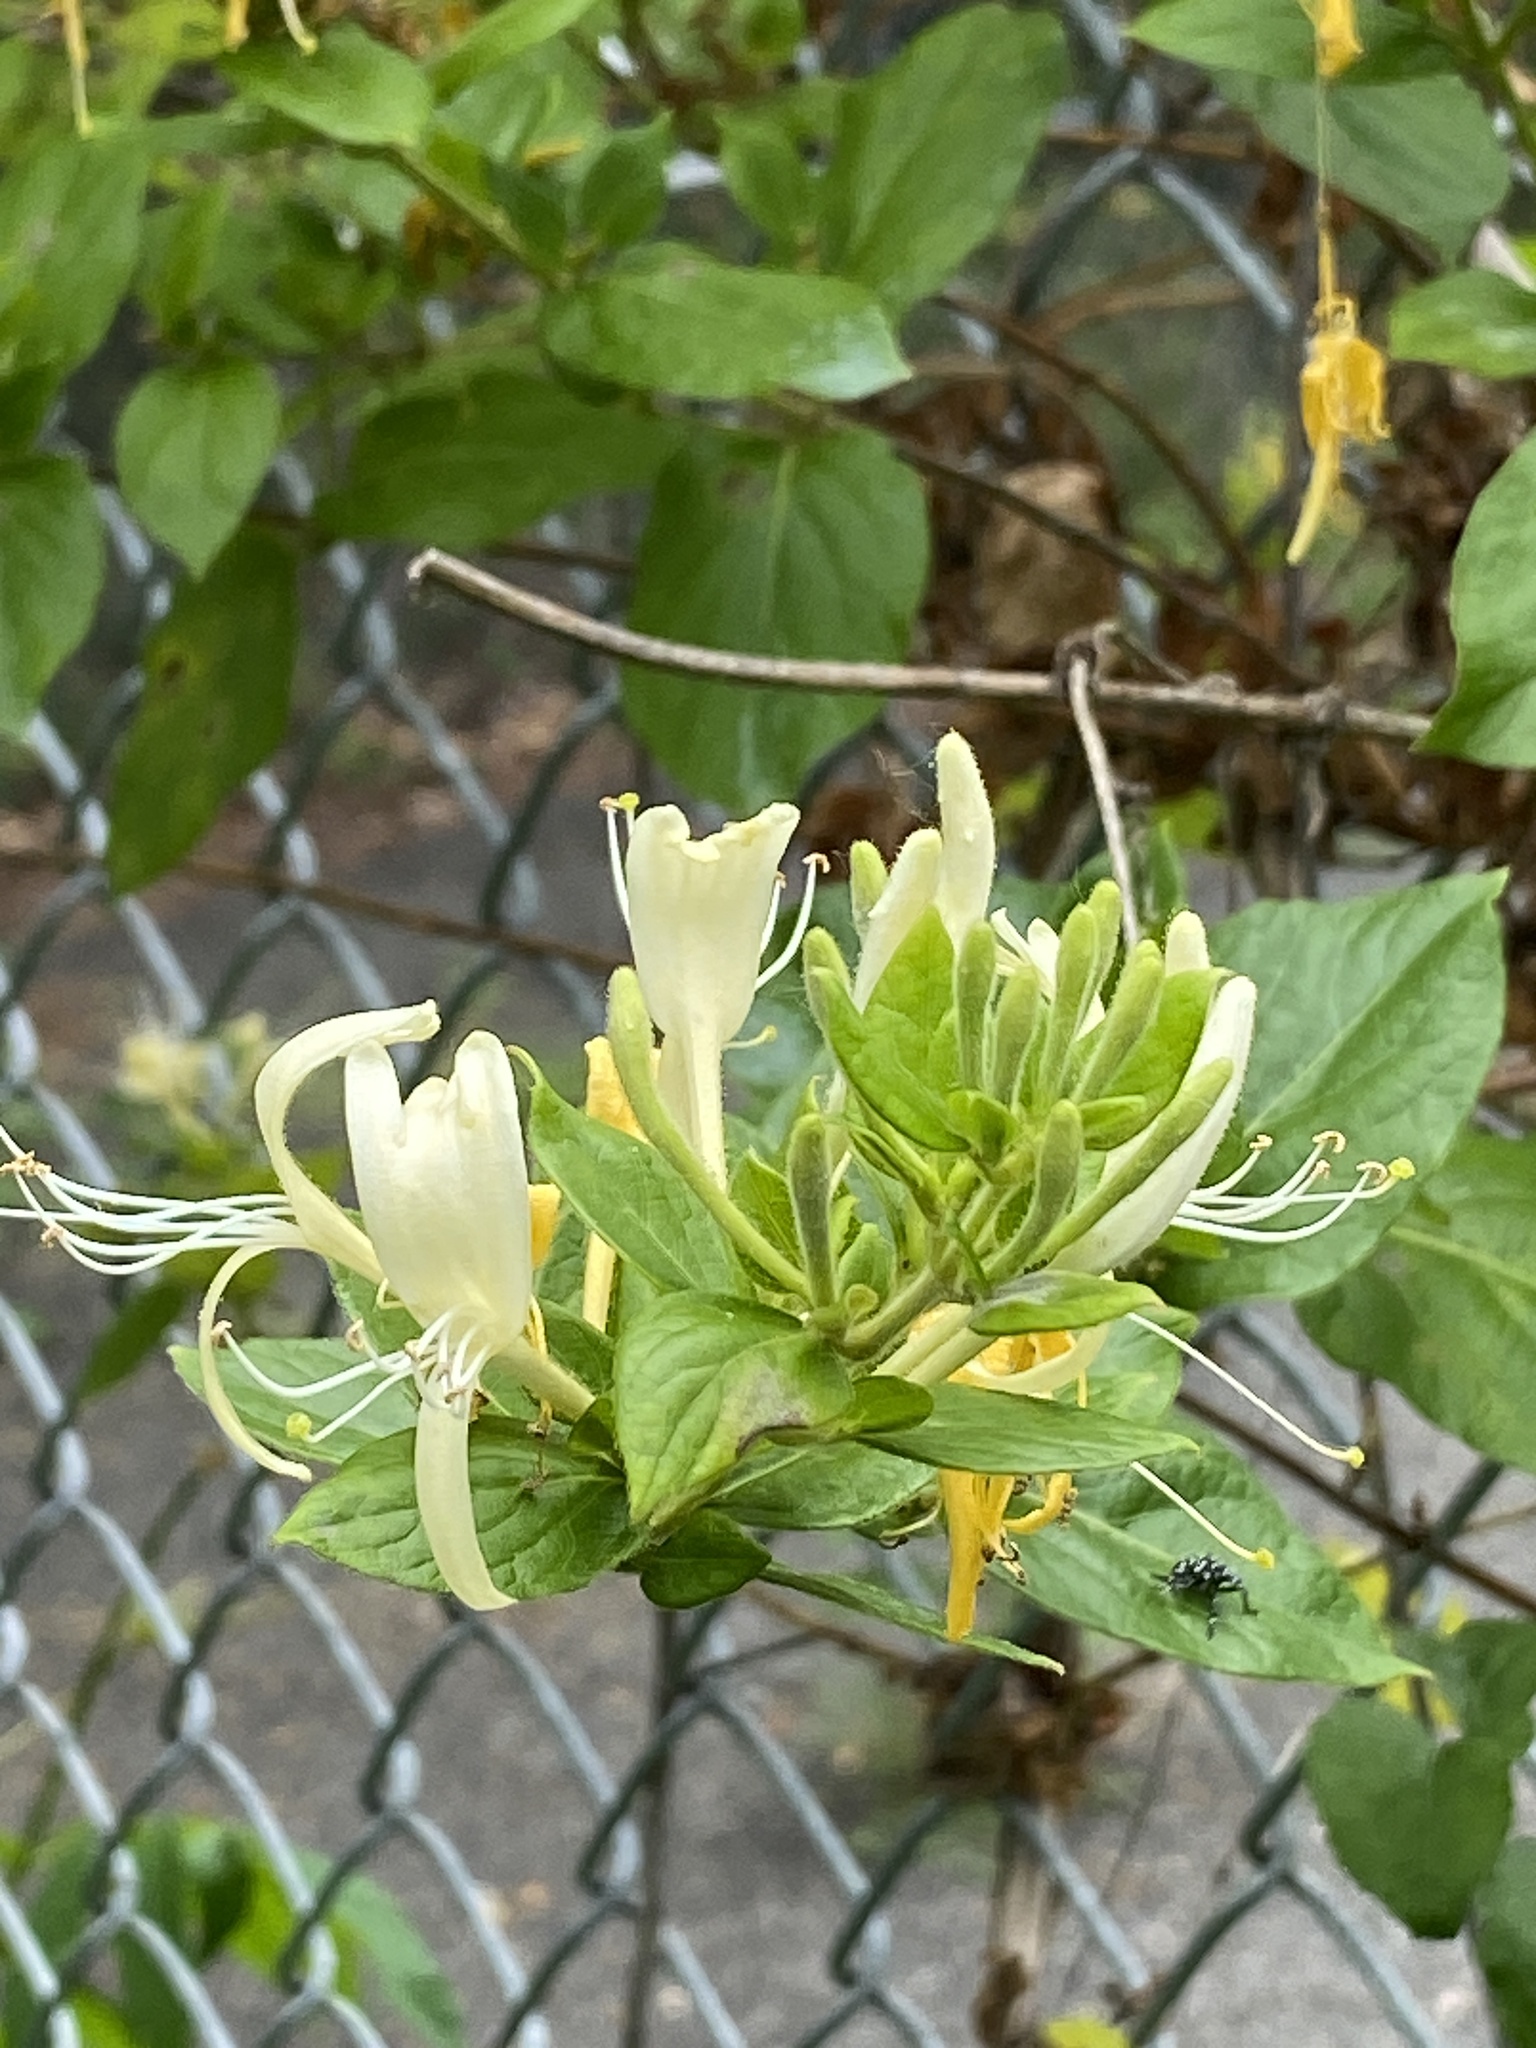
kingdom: Plantae
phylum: Tracheophyta
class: Magnoliopsida
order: Dipsacales
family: Caprifoliaceae
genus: Lonicera
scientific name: Lonicera japonica
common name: Japanese honeysuckle
